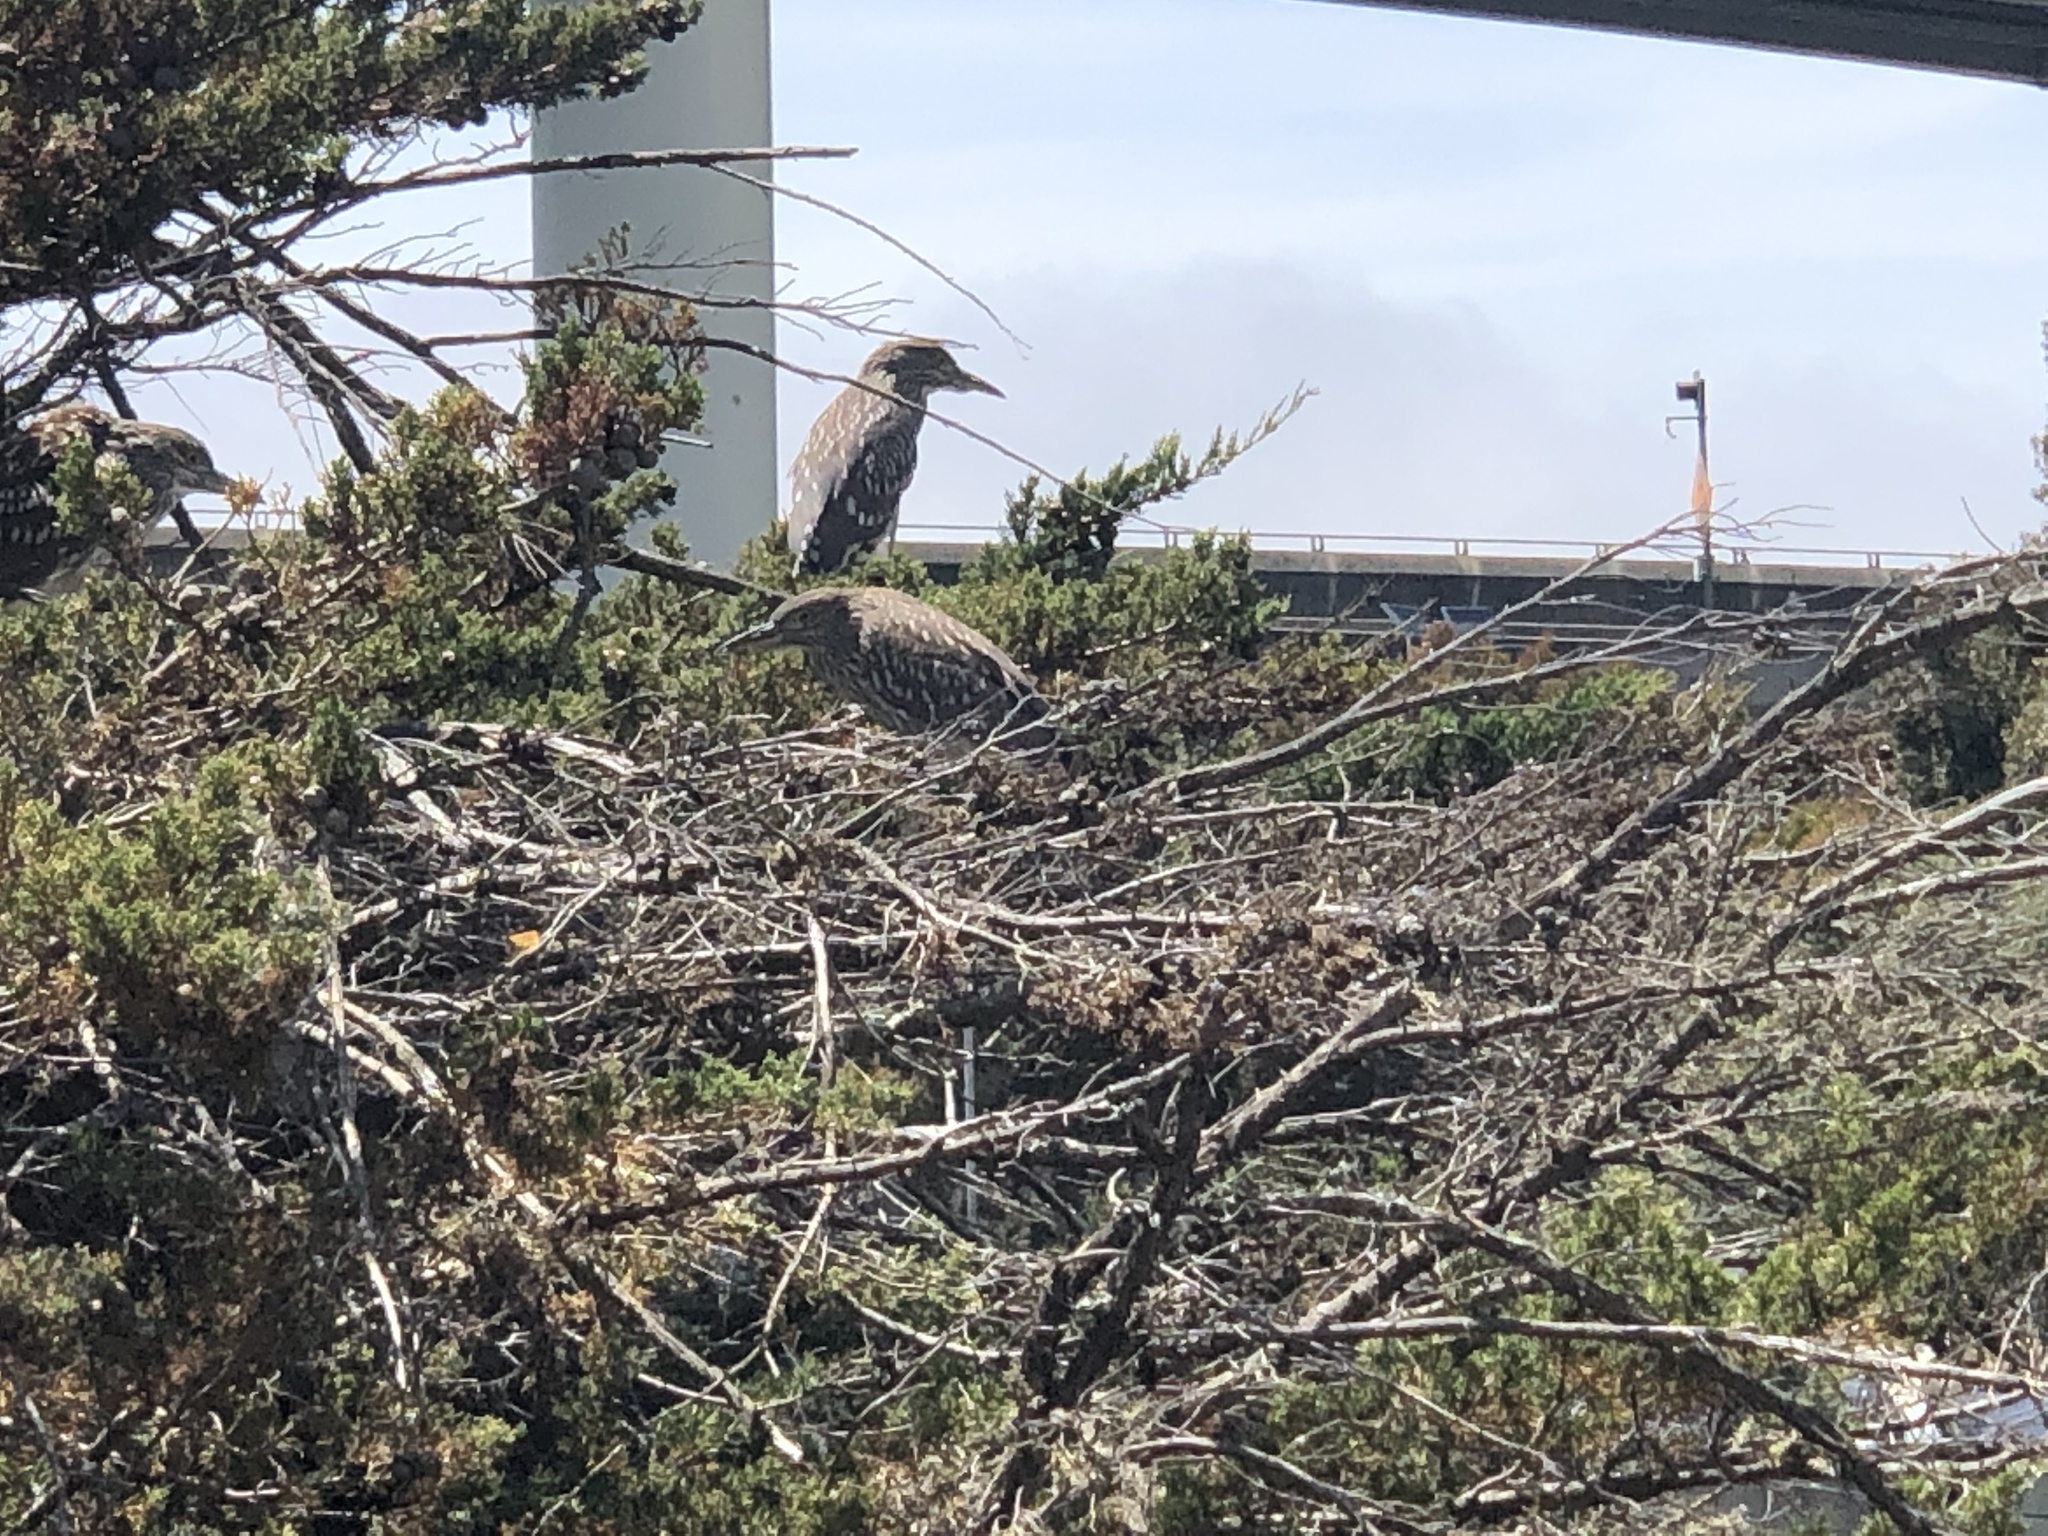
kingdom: Animalia
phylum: Chordata
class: Aves
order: Pelecaniformes
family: Ardeidae
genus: Nycticorax
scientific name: Nycticorax nycticorax
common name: Black-crowned night heron
